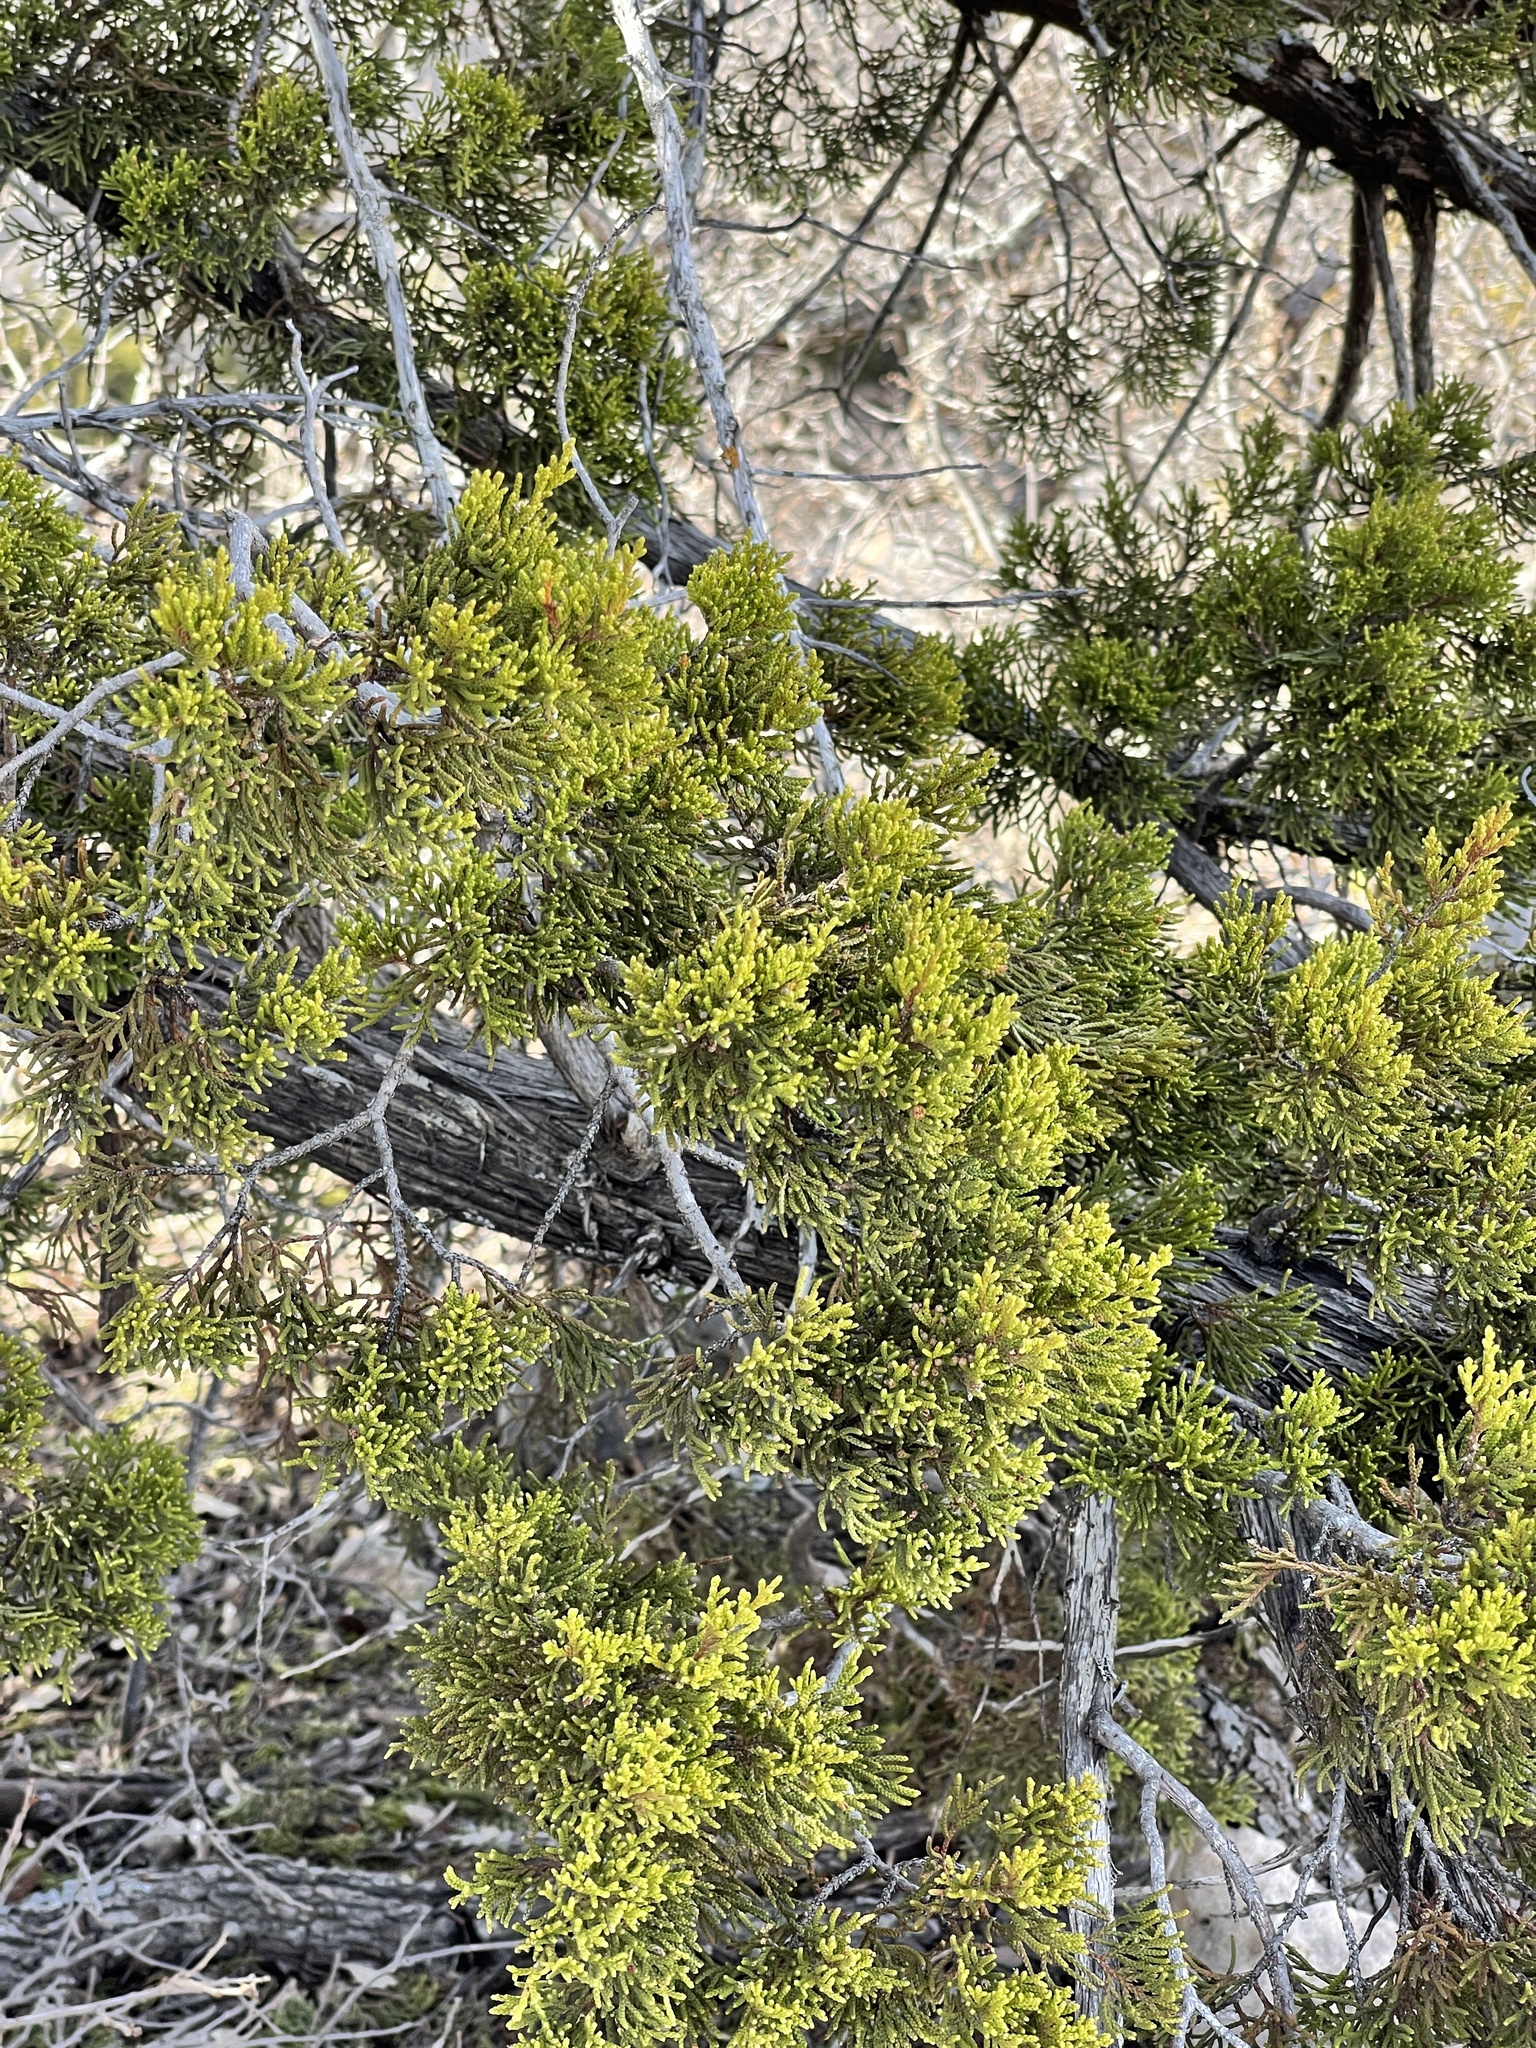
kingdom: Plantae
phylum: Tracheophyta
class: Pinopsida
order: Pinales
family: Cupressaceae
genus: Juniperus
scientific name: Juniperus ashei
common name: Mexican juniper
